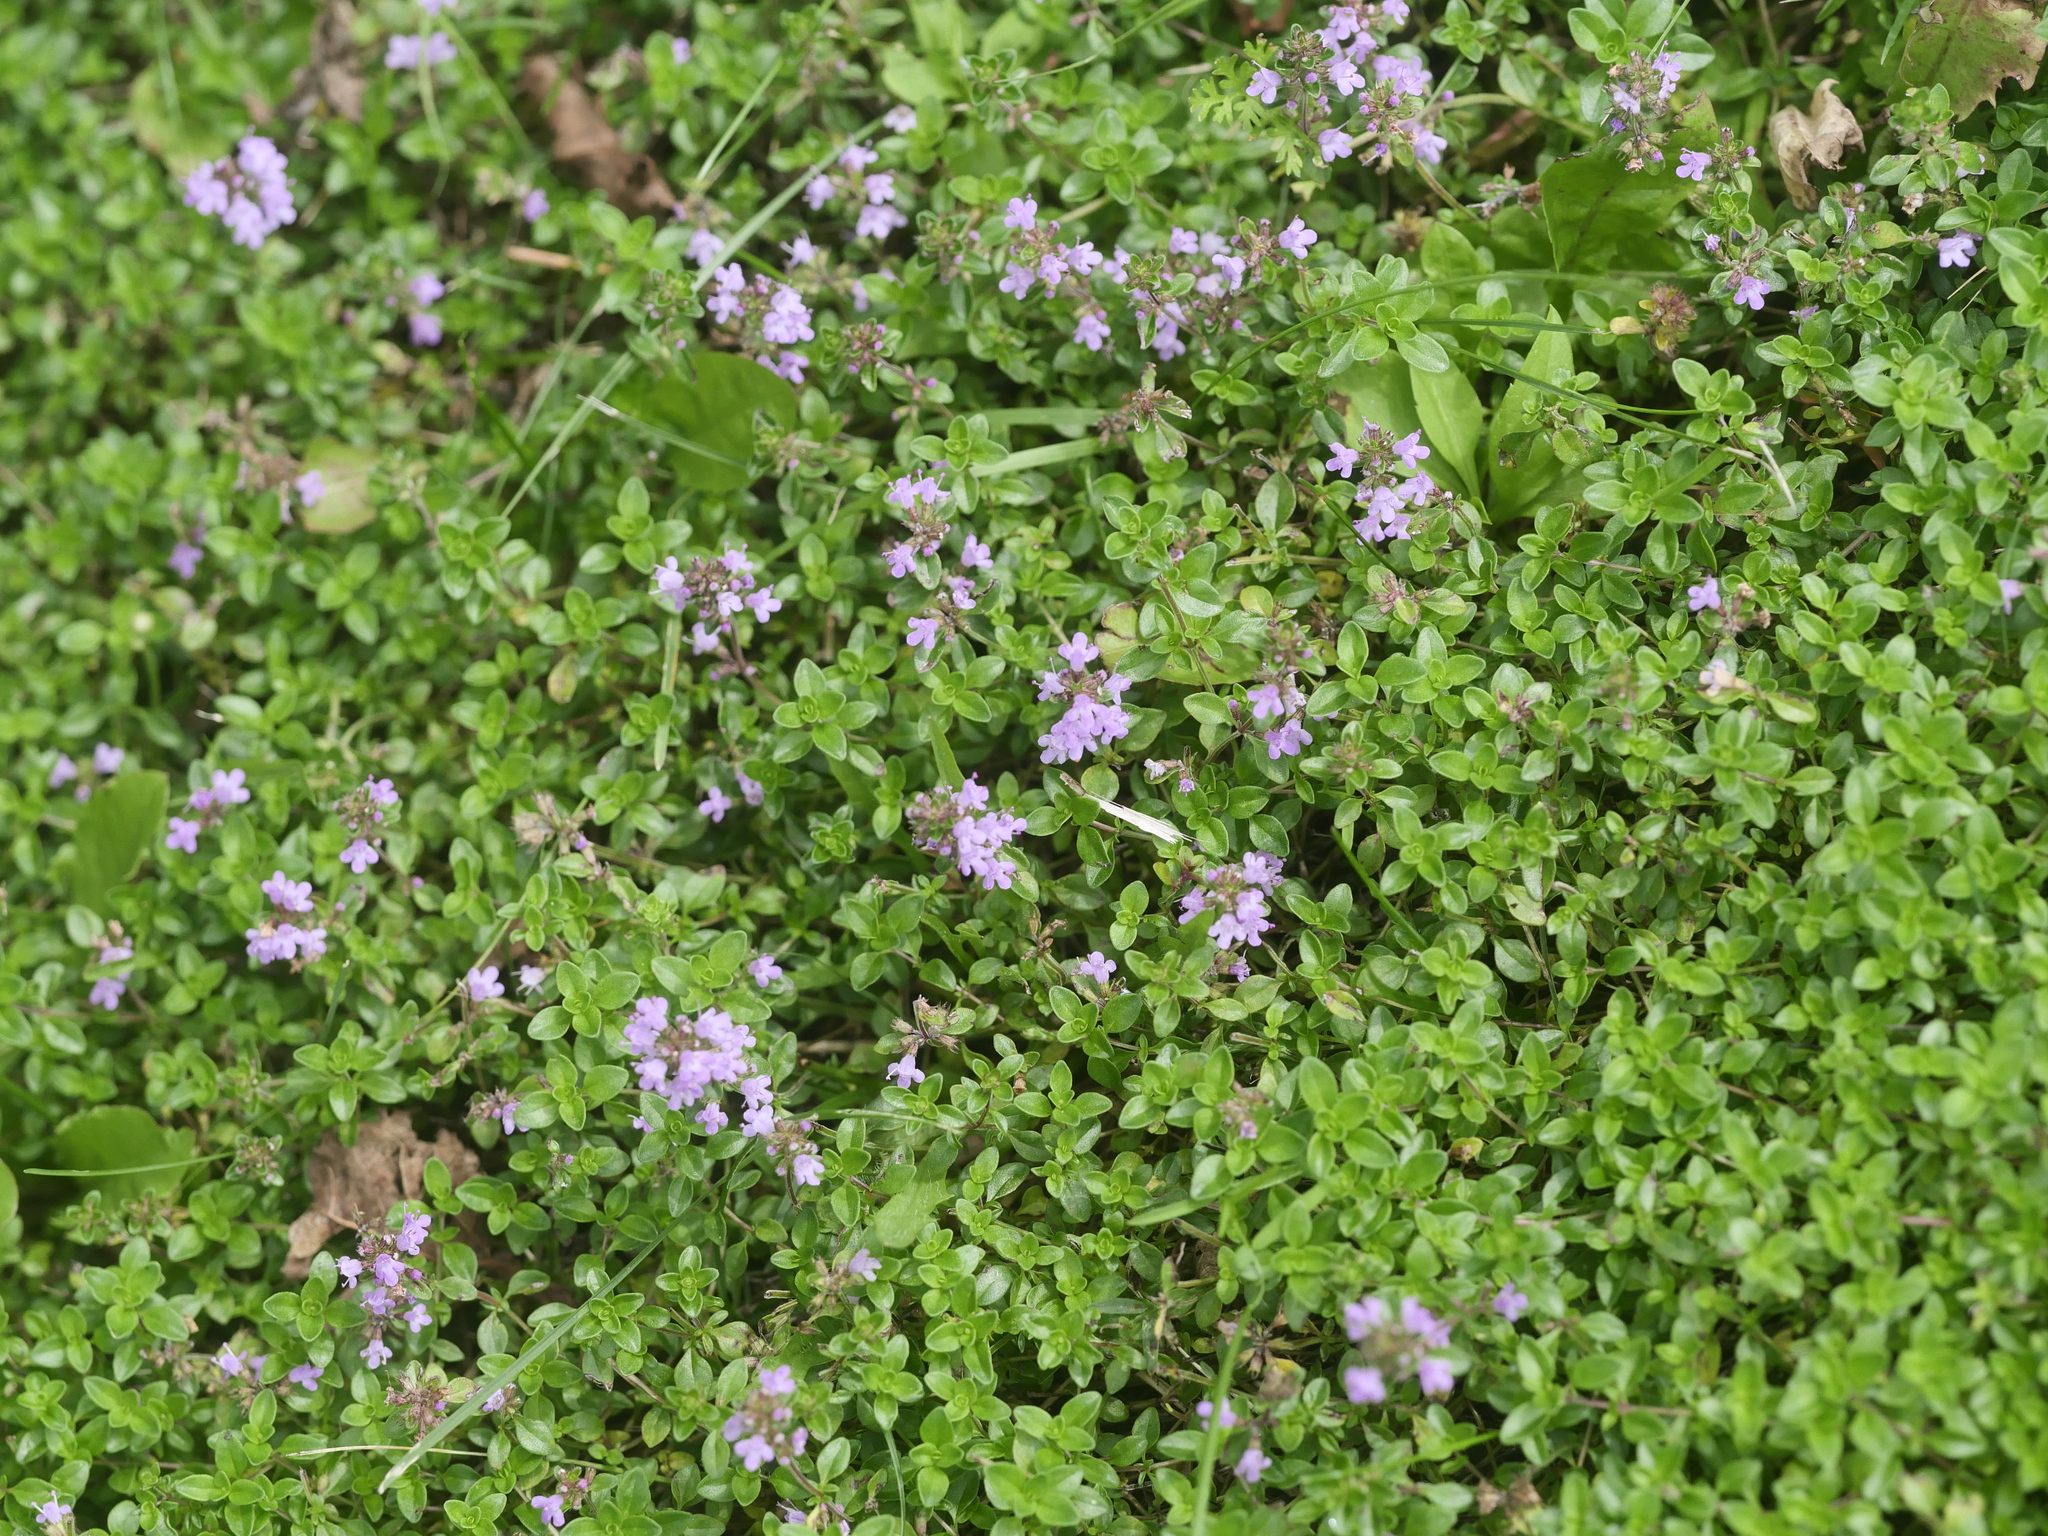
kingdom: Plantae
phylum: Tracheophyta
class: Magnoliopsida
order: Lamiales
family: Lamiaceae
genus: Thymus
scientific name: Thymus pulegioides
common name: Large thyme
